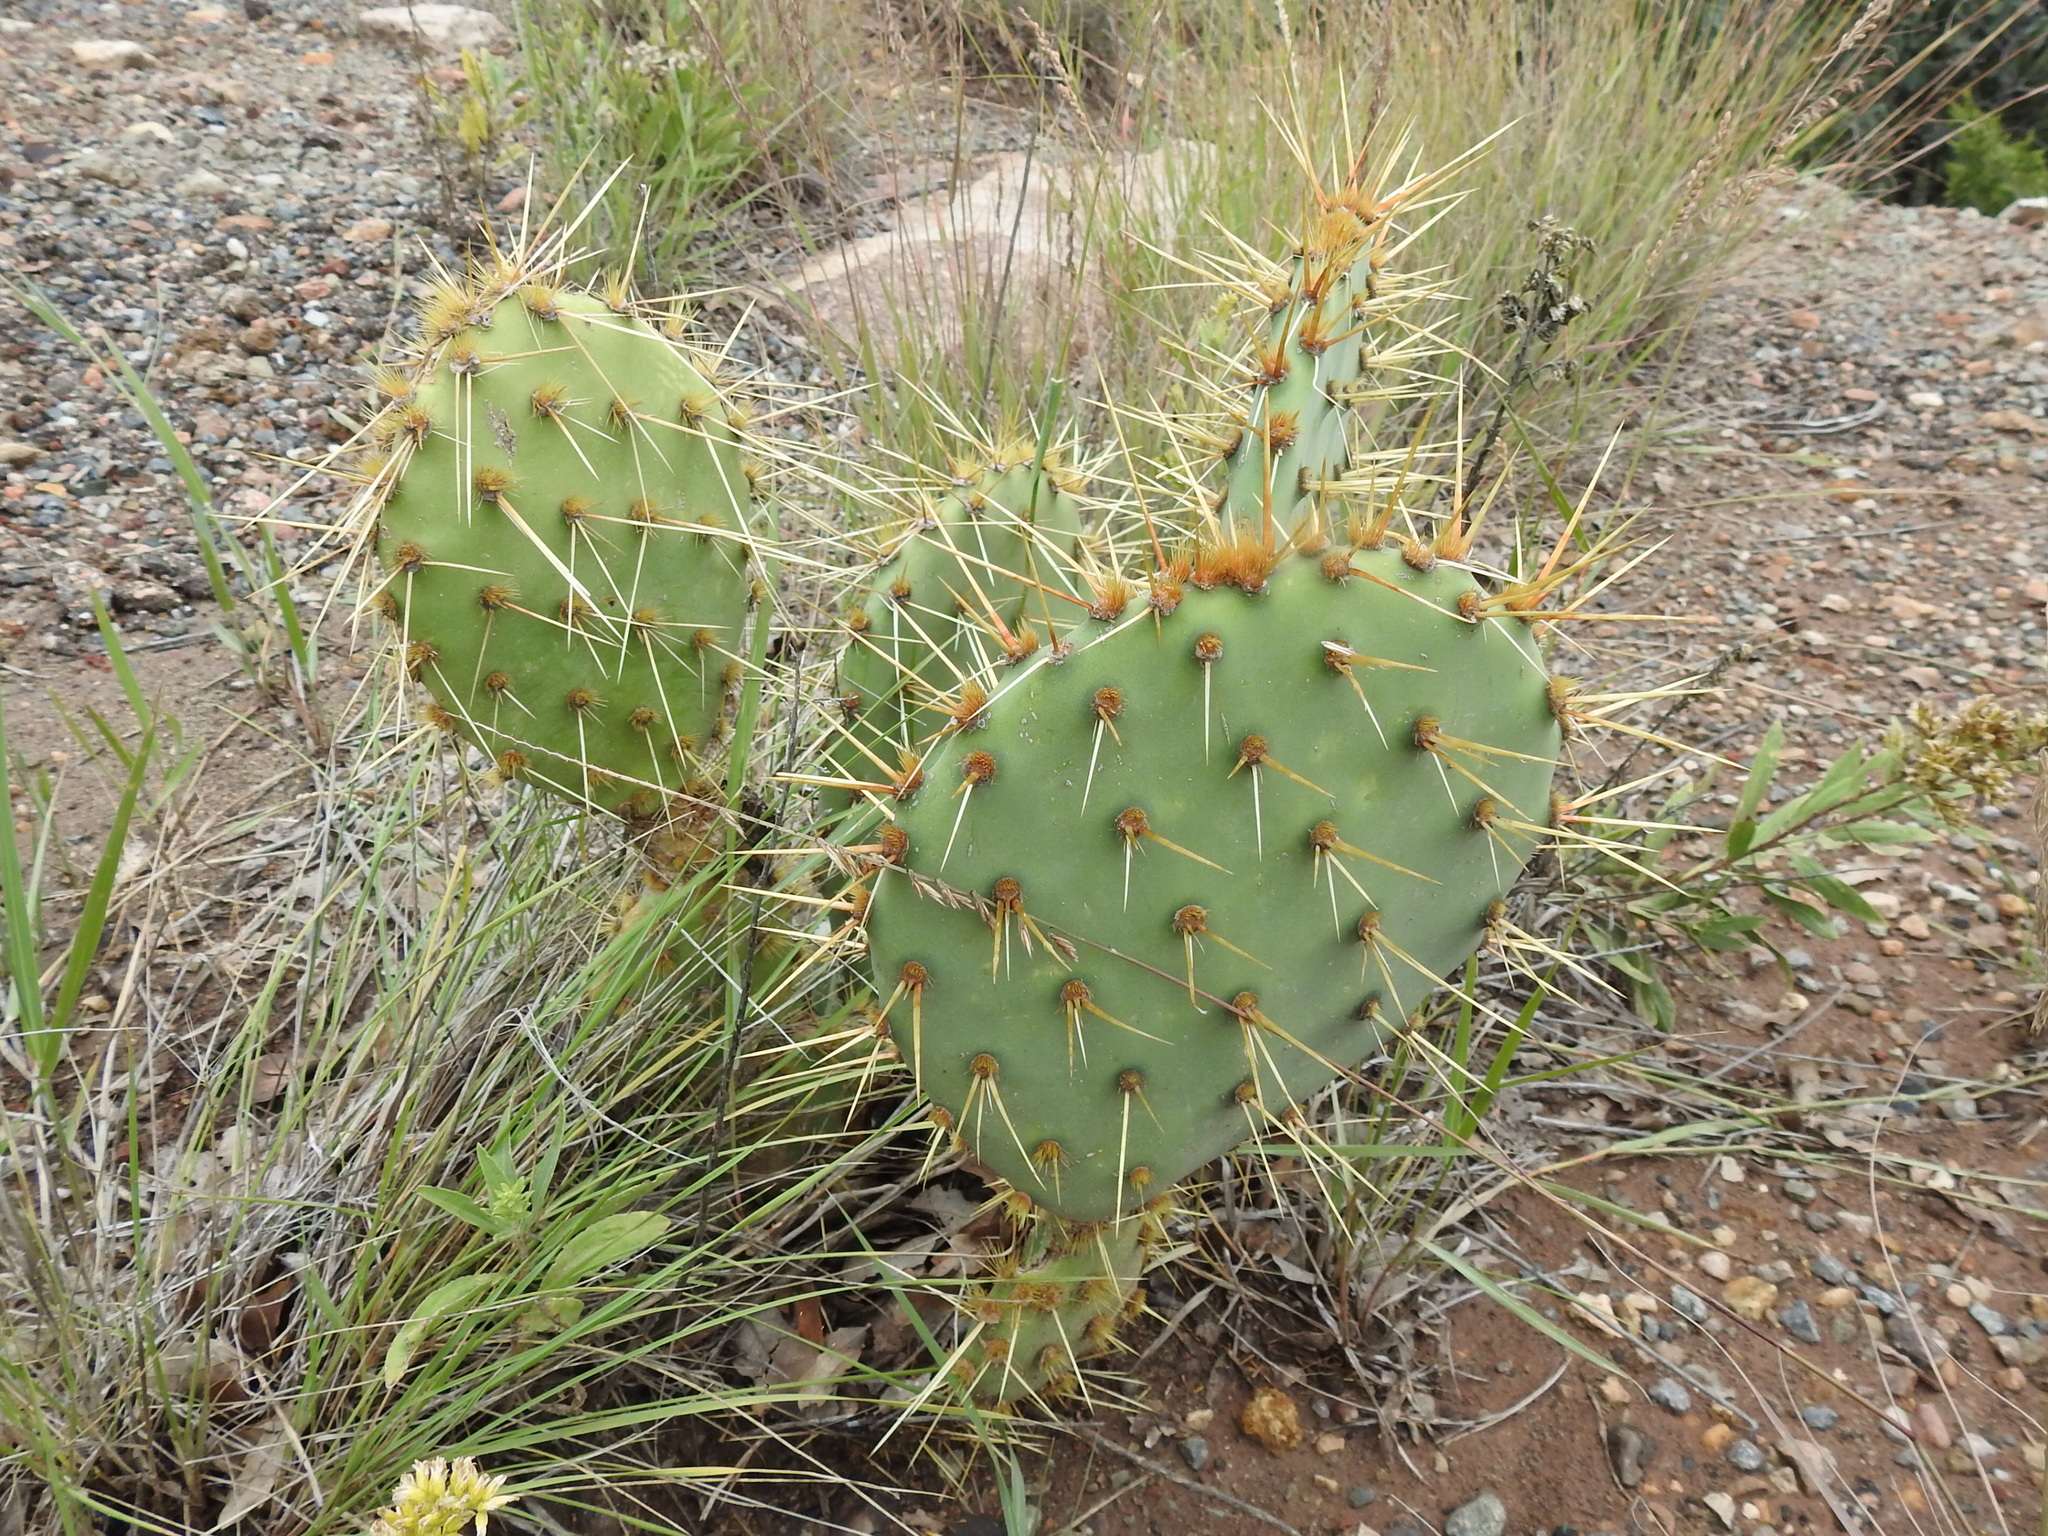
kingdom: Plantae
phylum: Tracheophyta
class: Magnoliopsida
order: Caryophyllales
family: Cactaceae
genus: Opuntia
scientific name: Opuntia phaeacantha
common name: New mexico prickly-pear
